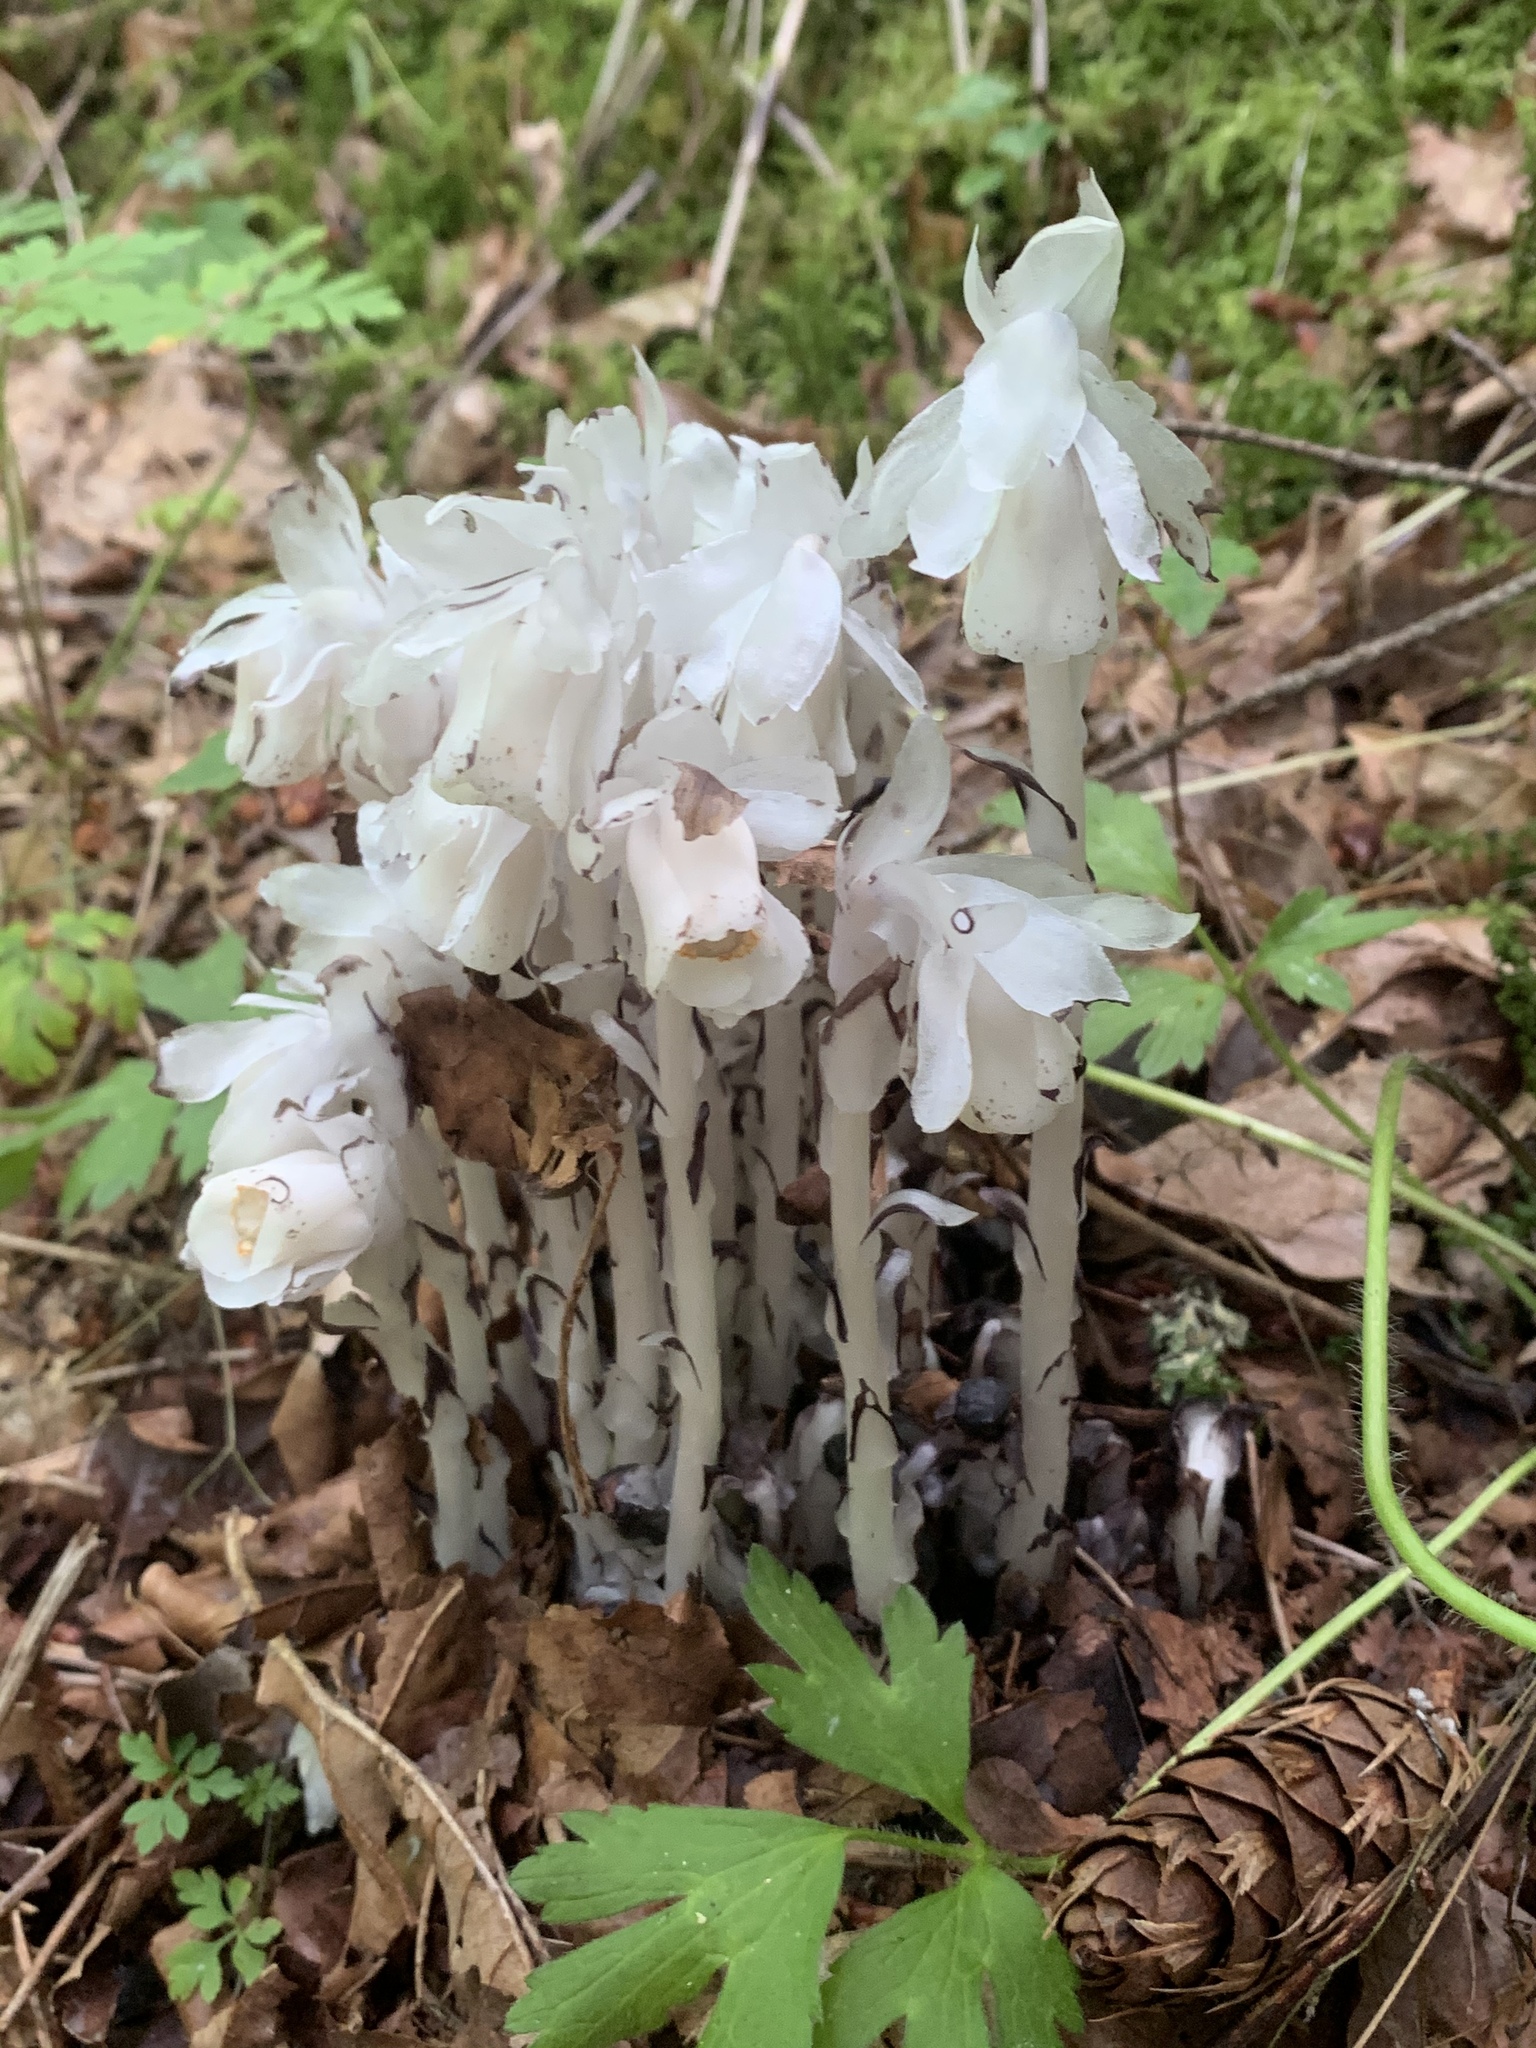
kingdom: Plantae
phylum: Tracheophyta
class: Magnoliopsida
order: Ericales
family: Ericaceae
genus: Monotropa
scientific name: Monotropa uniflora
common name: Convulsion root
